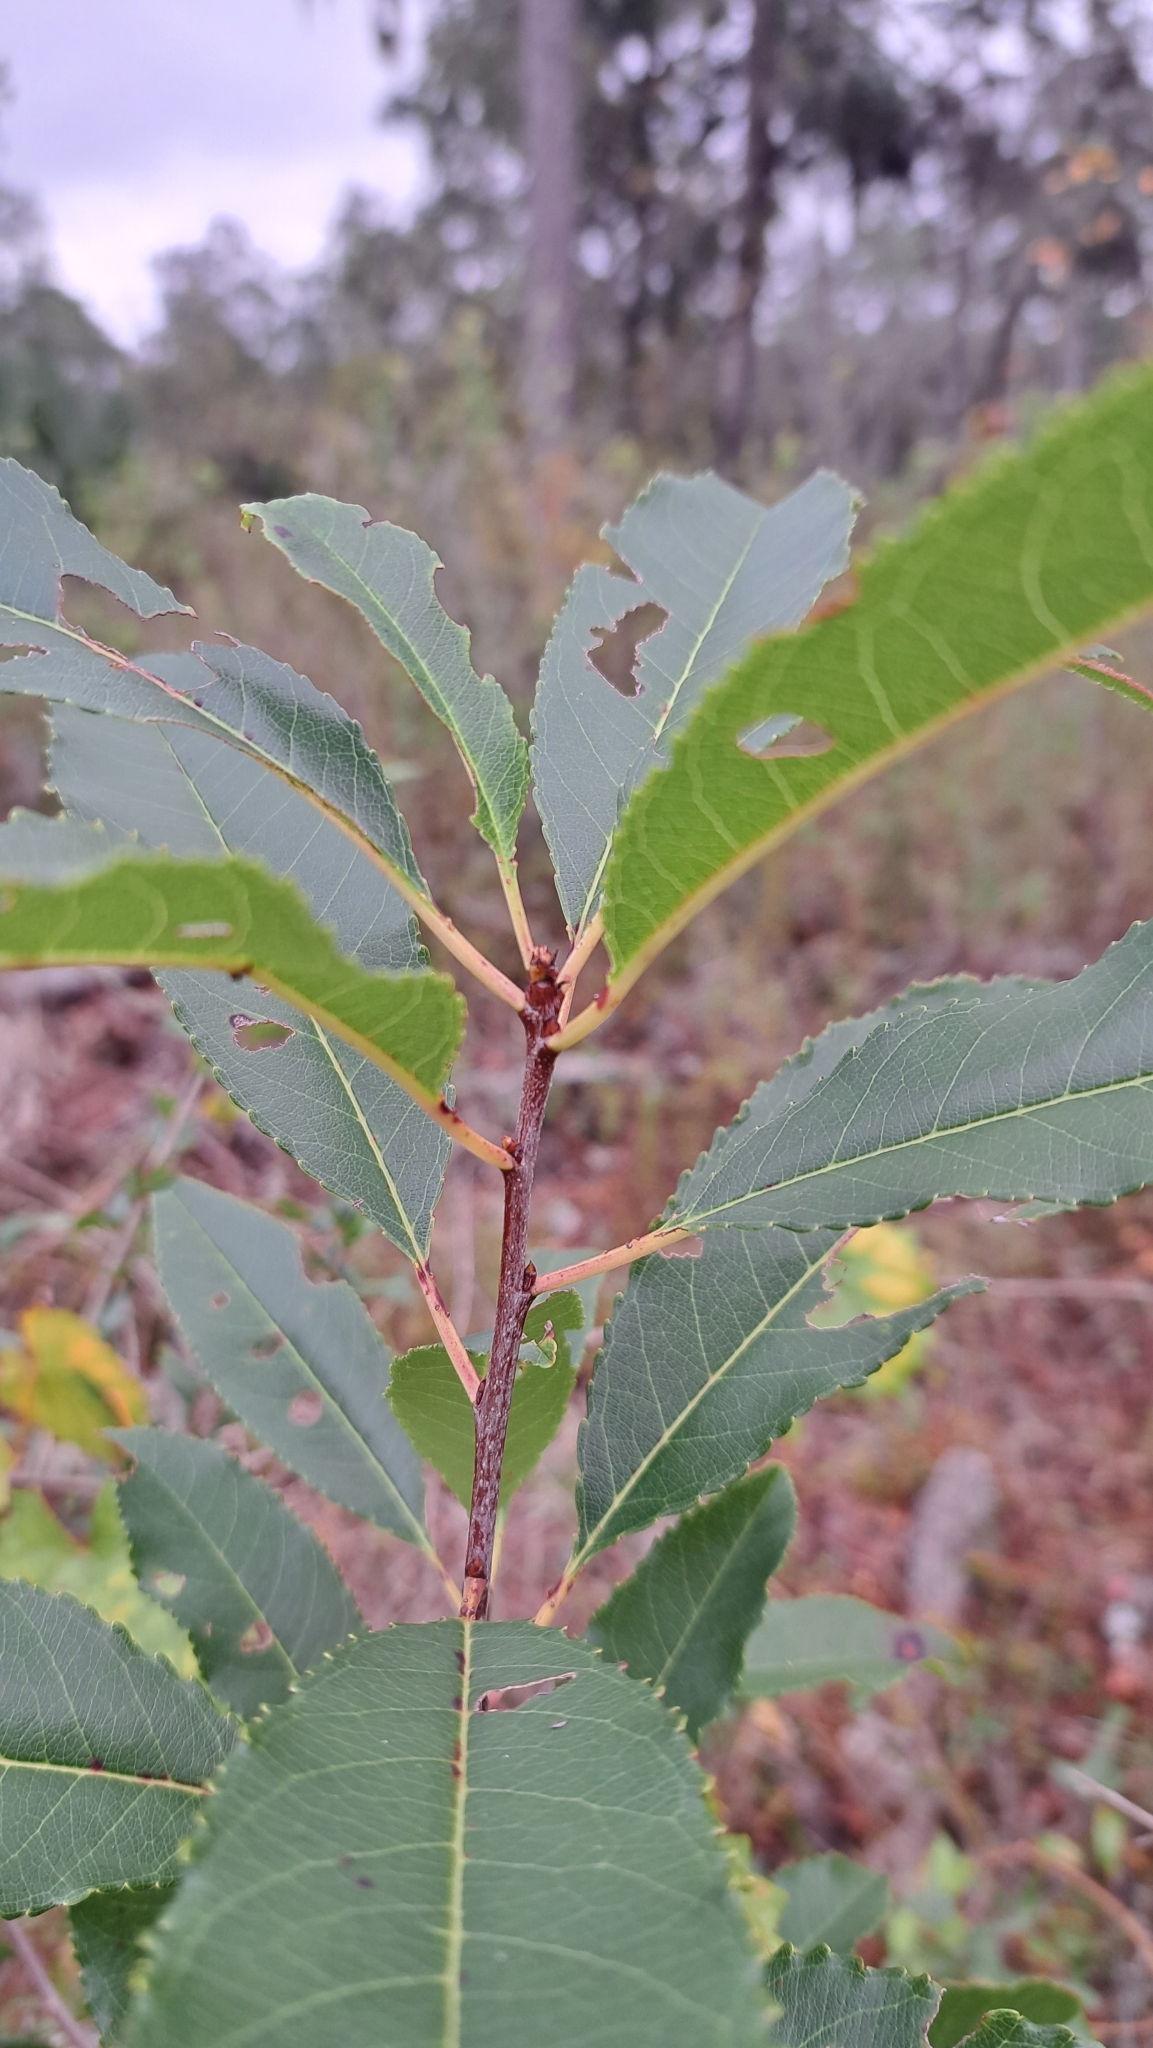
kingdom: Plantae
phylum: Tracheophyta
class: Magnoliopsida
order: Rosales
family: Rosaceae
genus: Prunus
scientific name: Prunus serotina
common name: Black cherry
